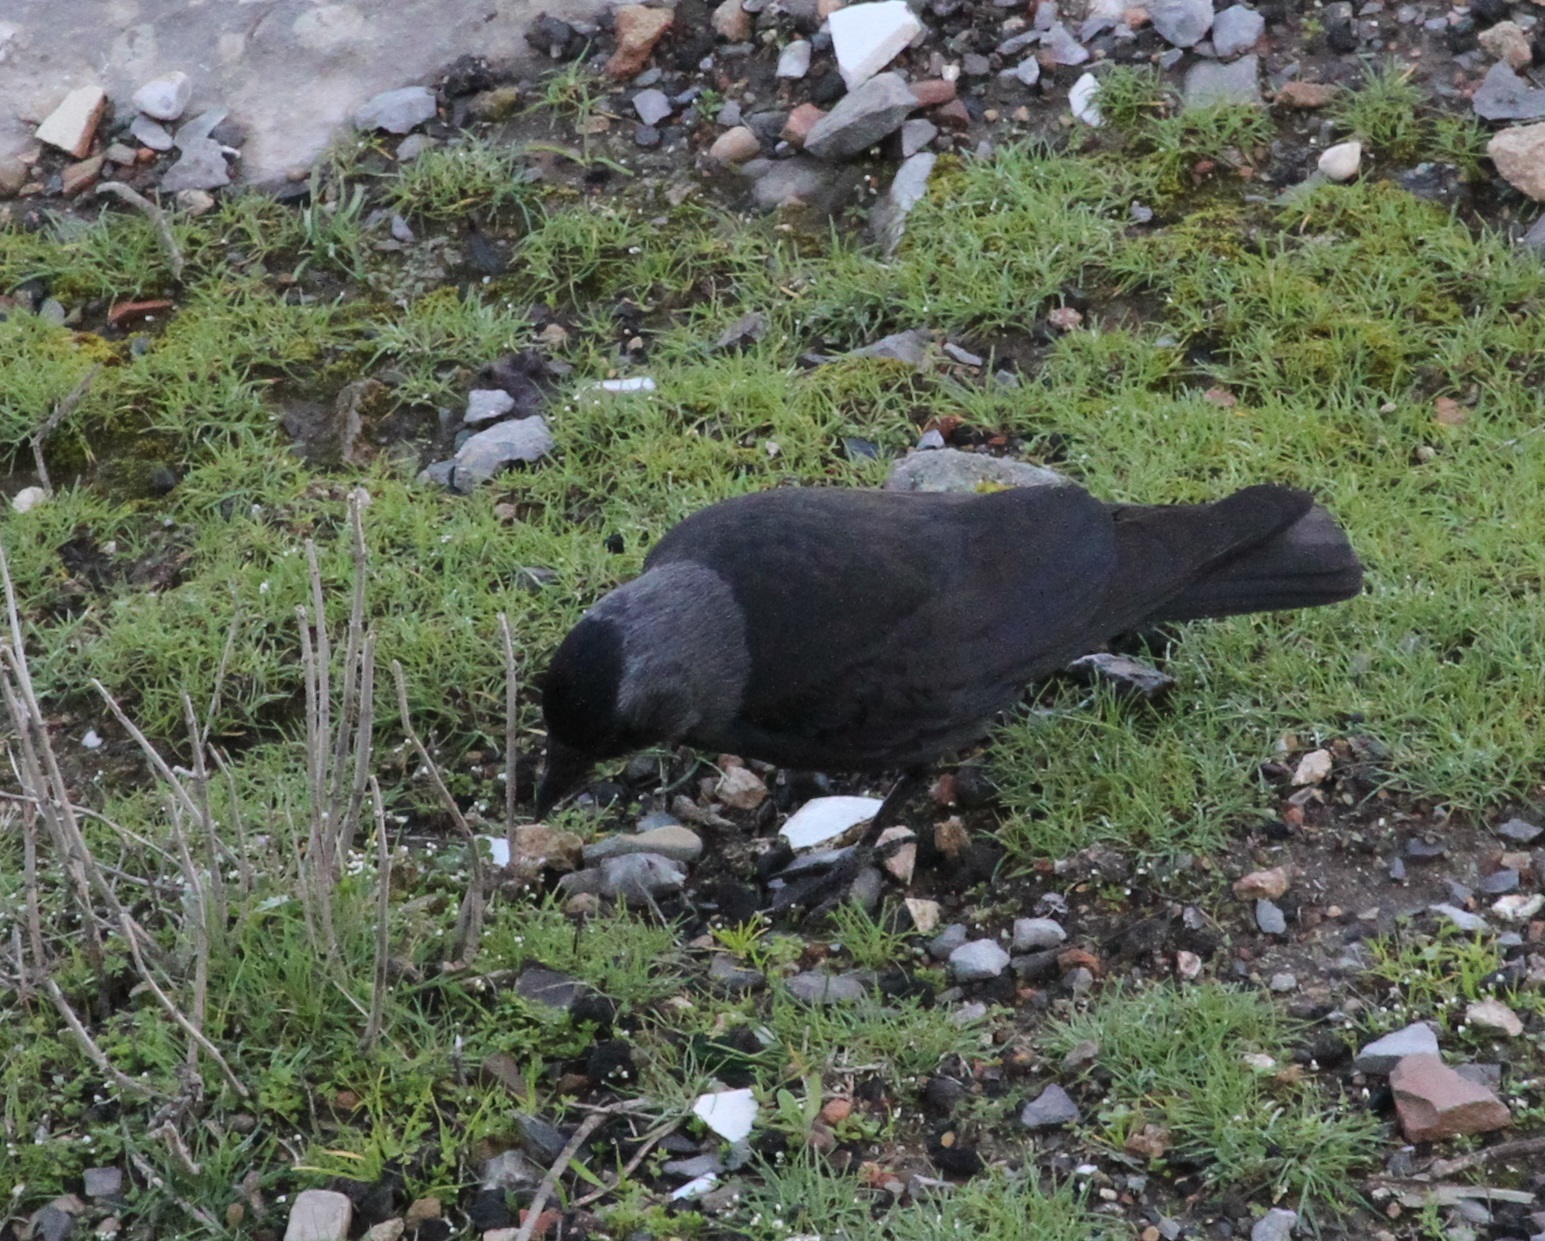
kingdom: Animalia
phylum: Chordata
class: Aves
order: Passeriformes
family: Corvidae
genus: Coloeus
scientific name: Coloeus monedula
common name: Western jackdaw
